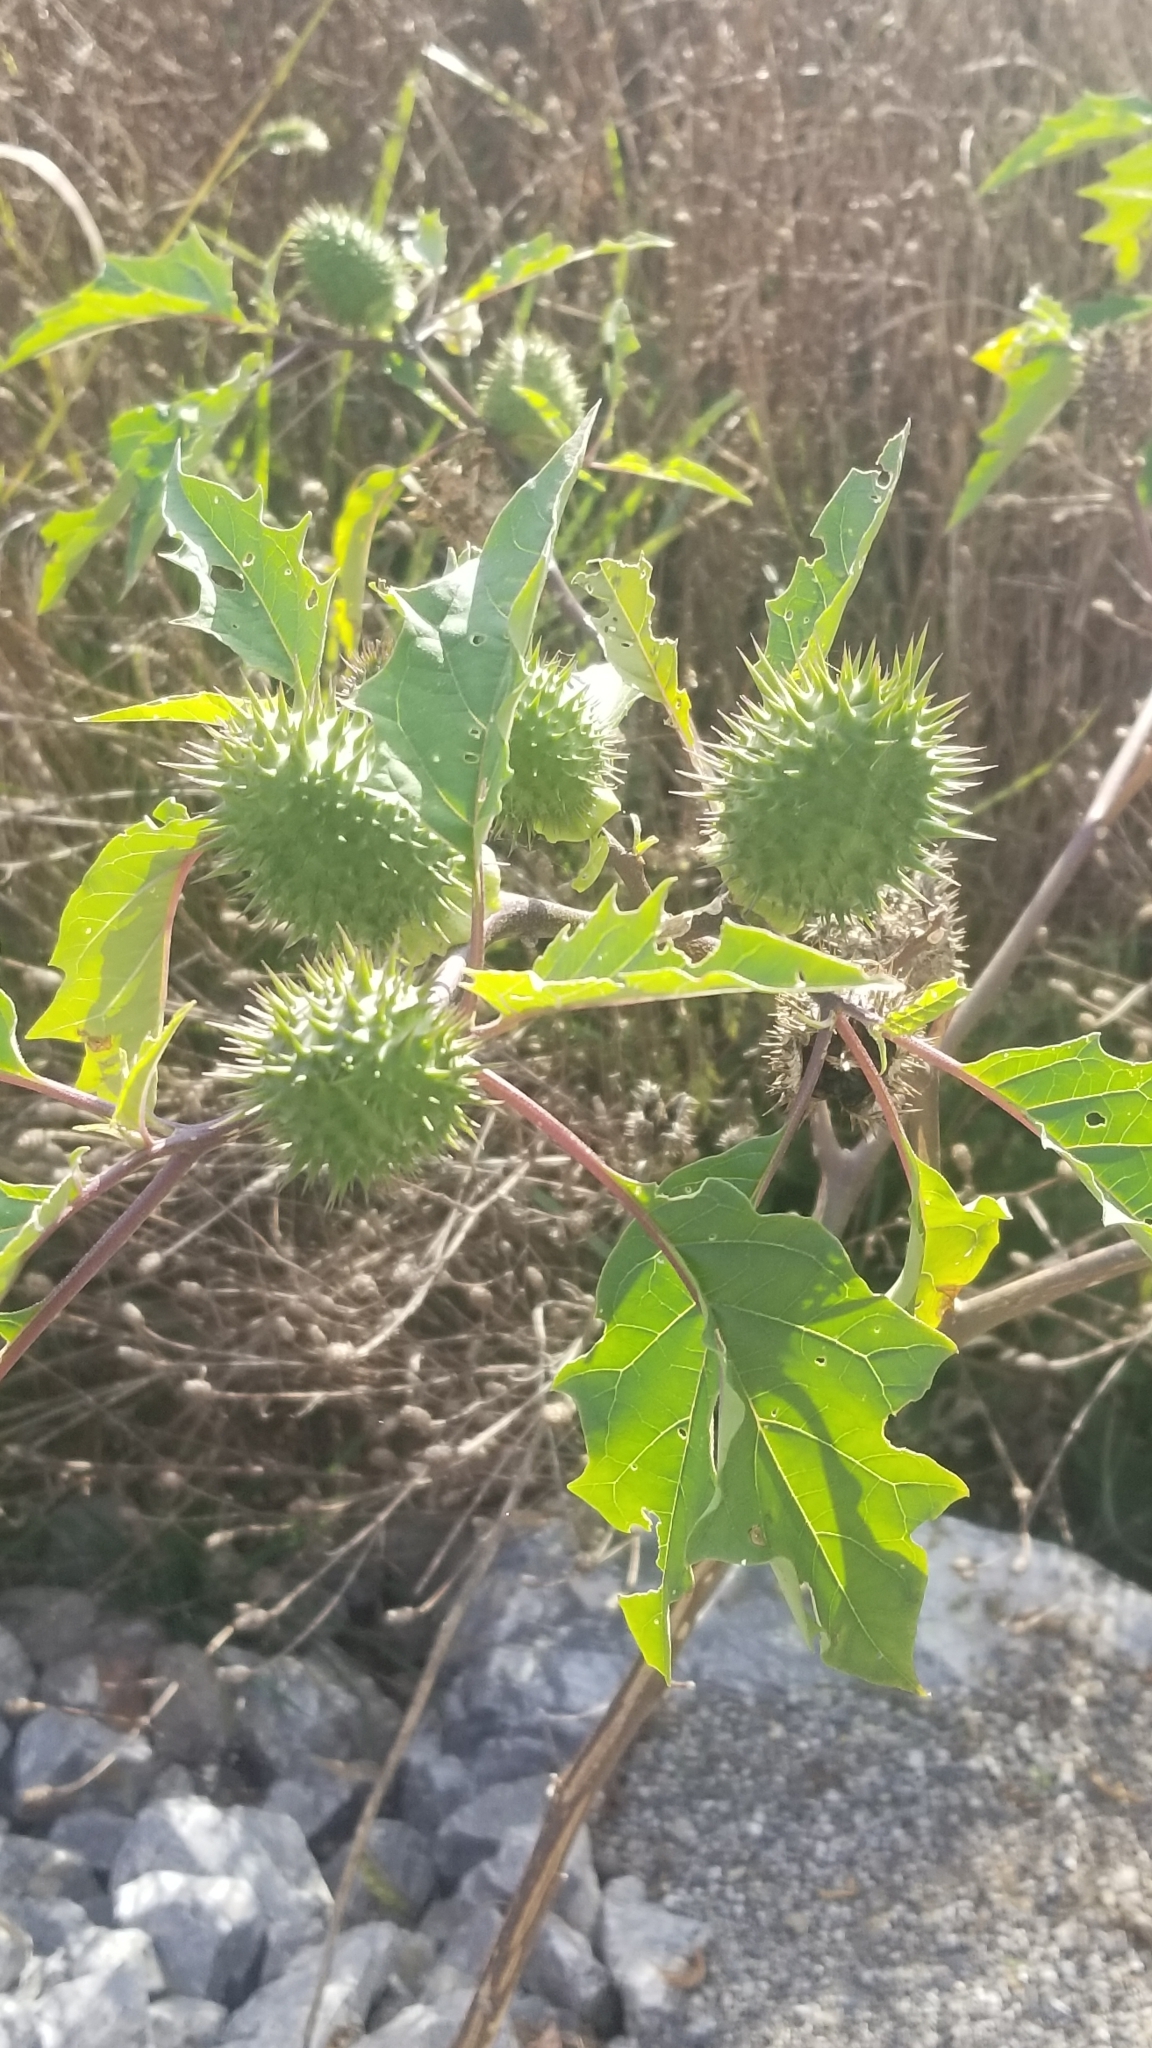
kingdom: Plantae
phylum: Tracheophyta
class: Magnoliopsida
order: Solanales
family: Solanaceae
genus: Datura
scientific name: Datura stramonium
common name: Thorn-apple
